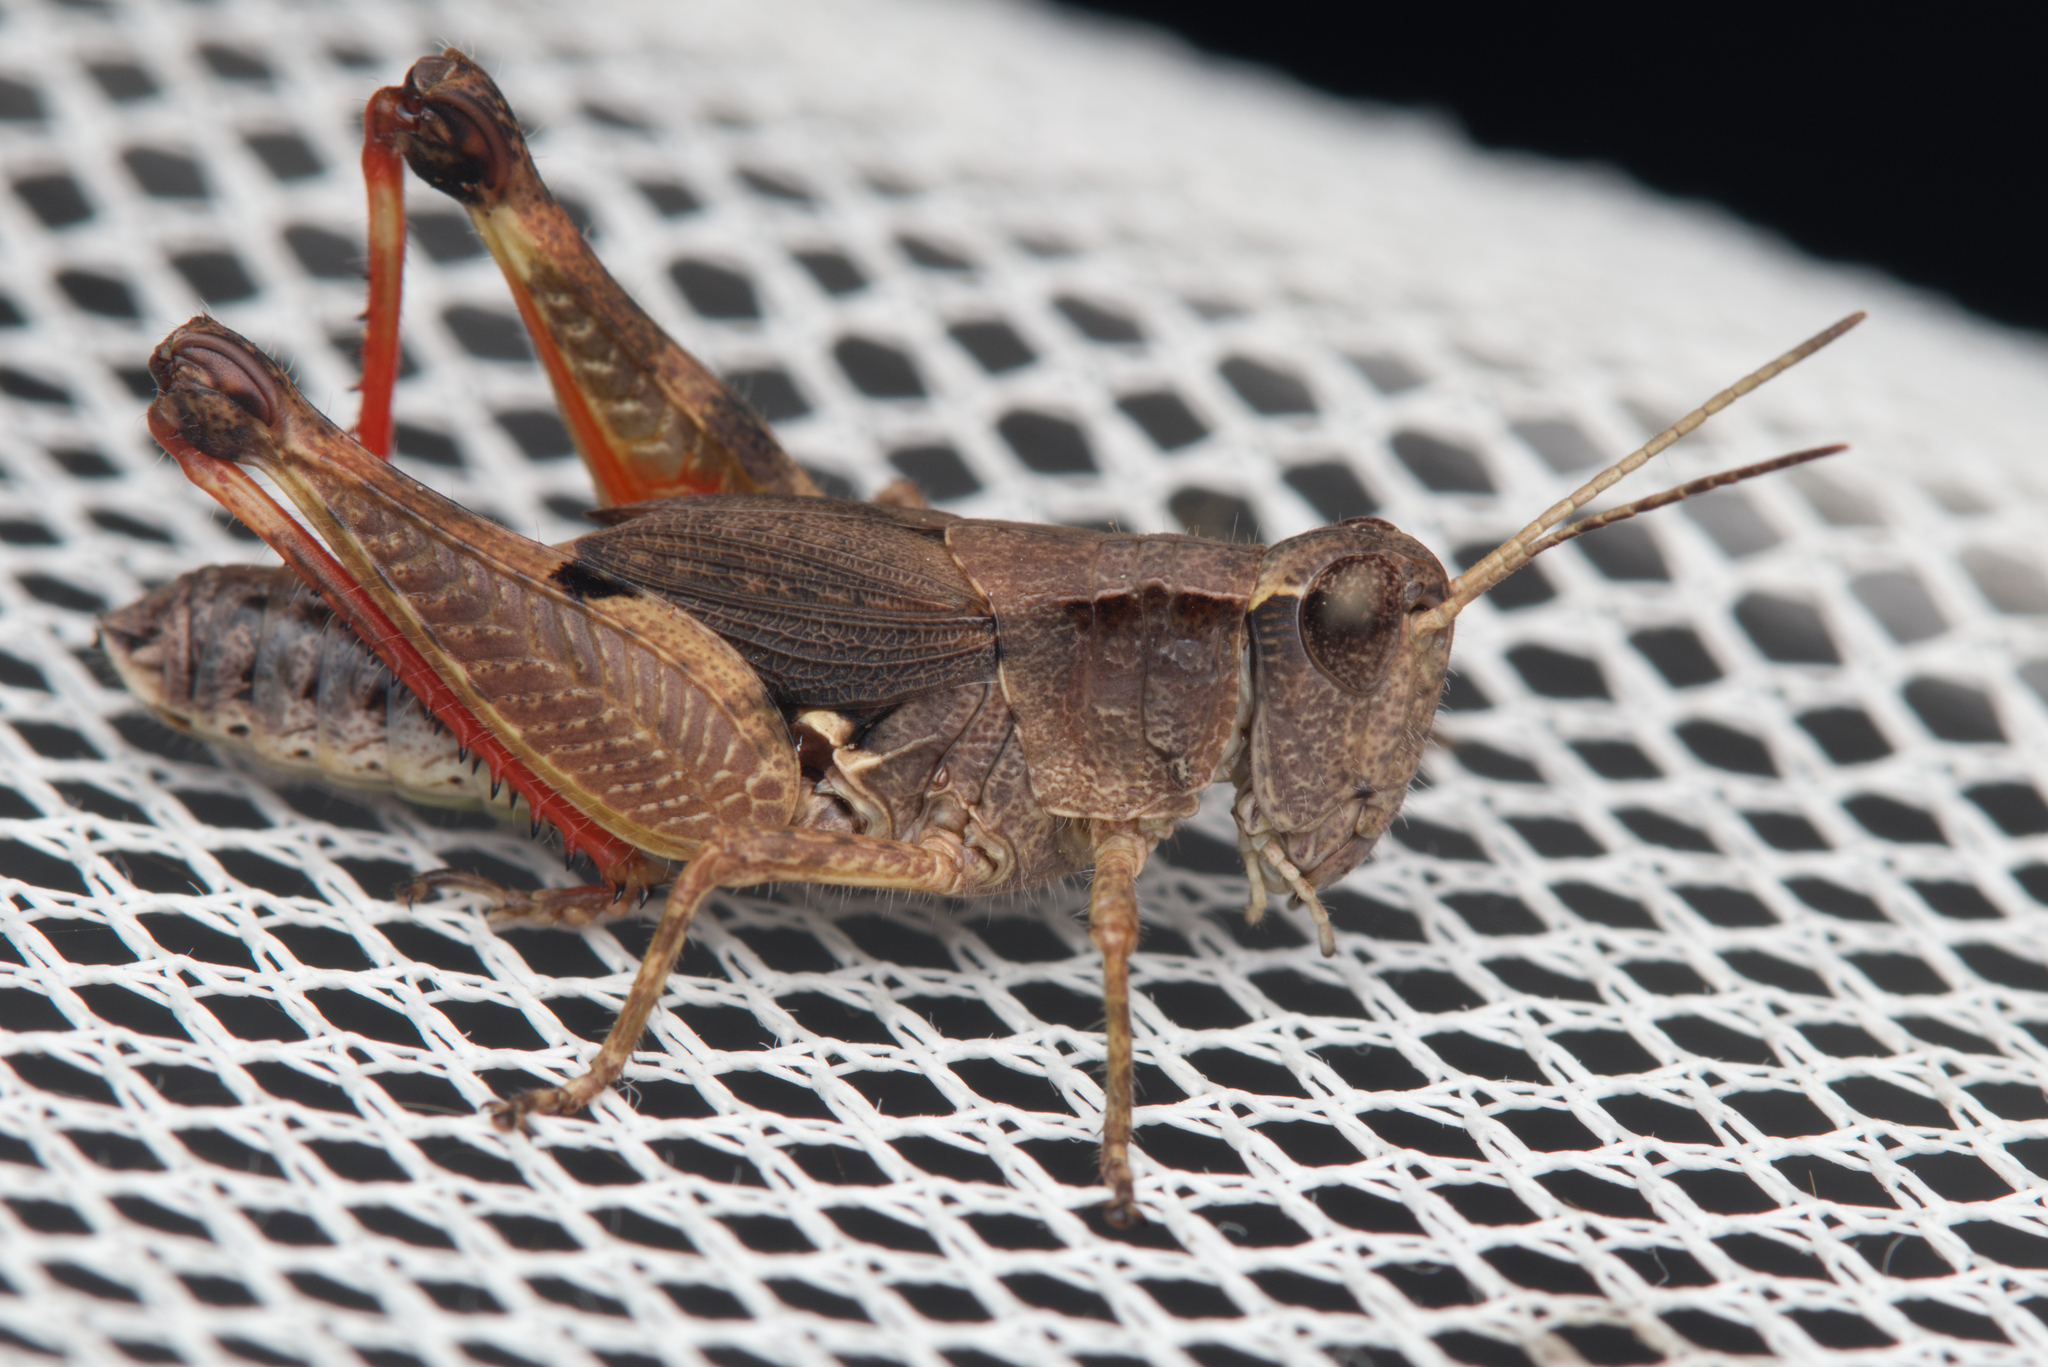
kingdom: Animalia
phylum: Arthropoda
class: Insecta
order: Orthoptera
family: Acrididae
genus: Phaulacridium
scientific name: Phaulacridium vittatum
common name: Wingless grasshopper
